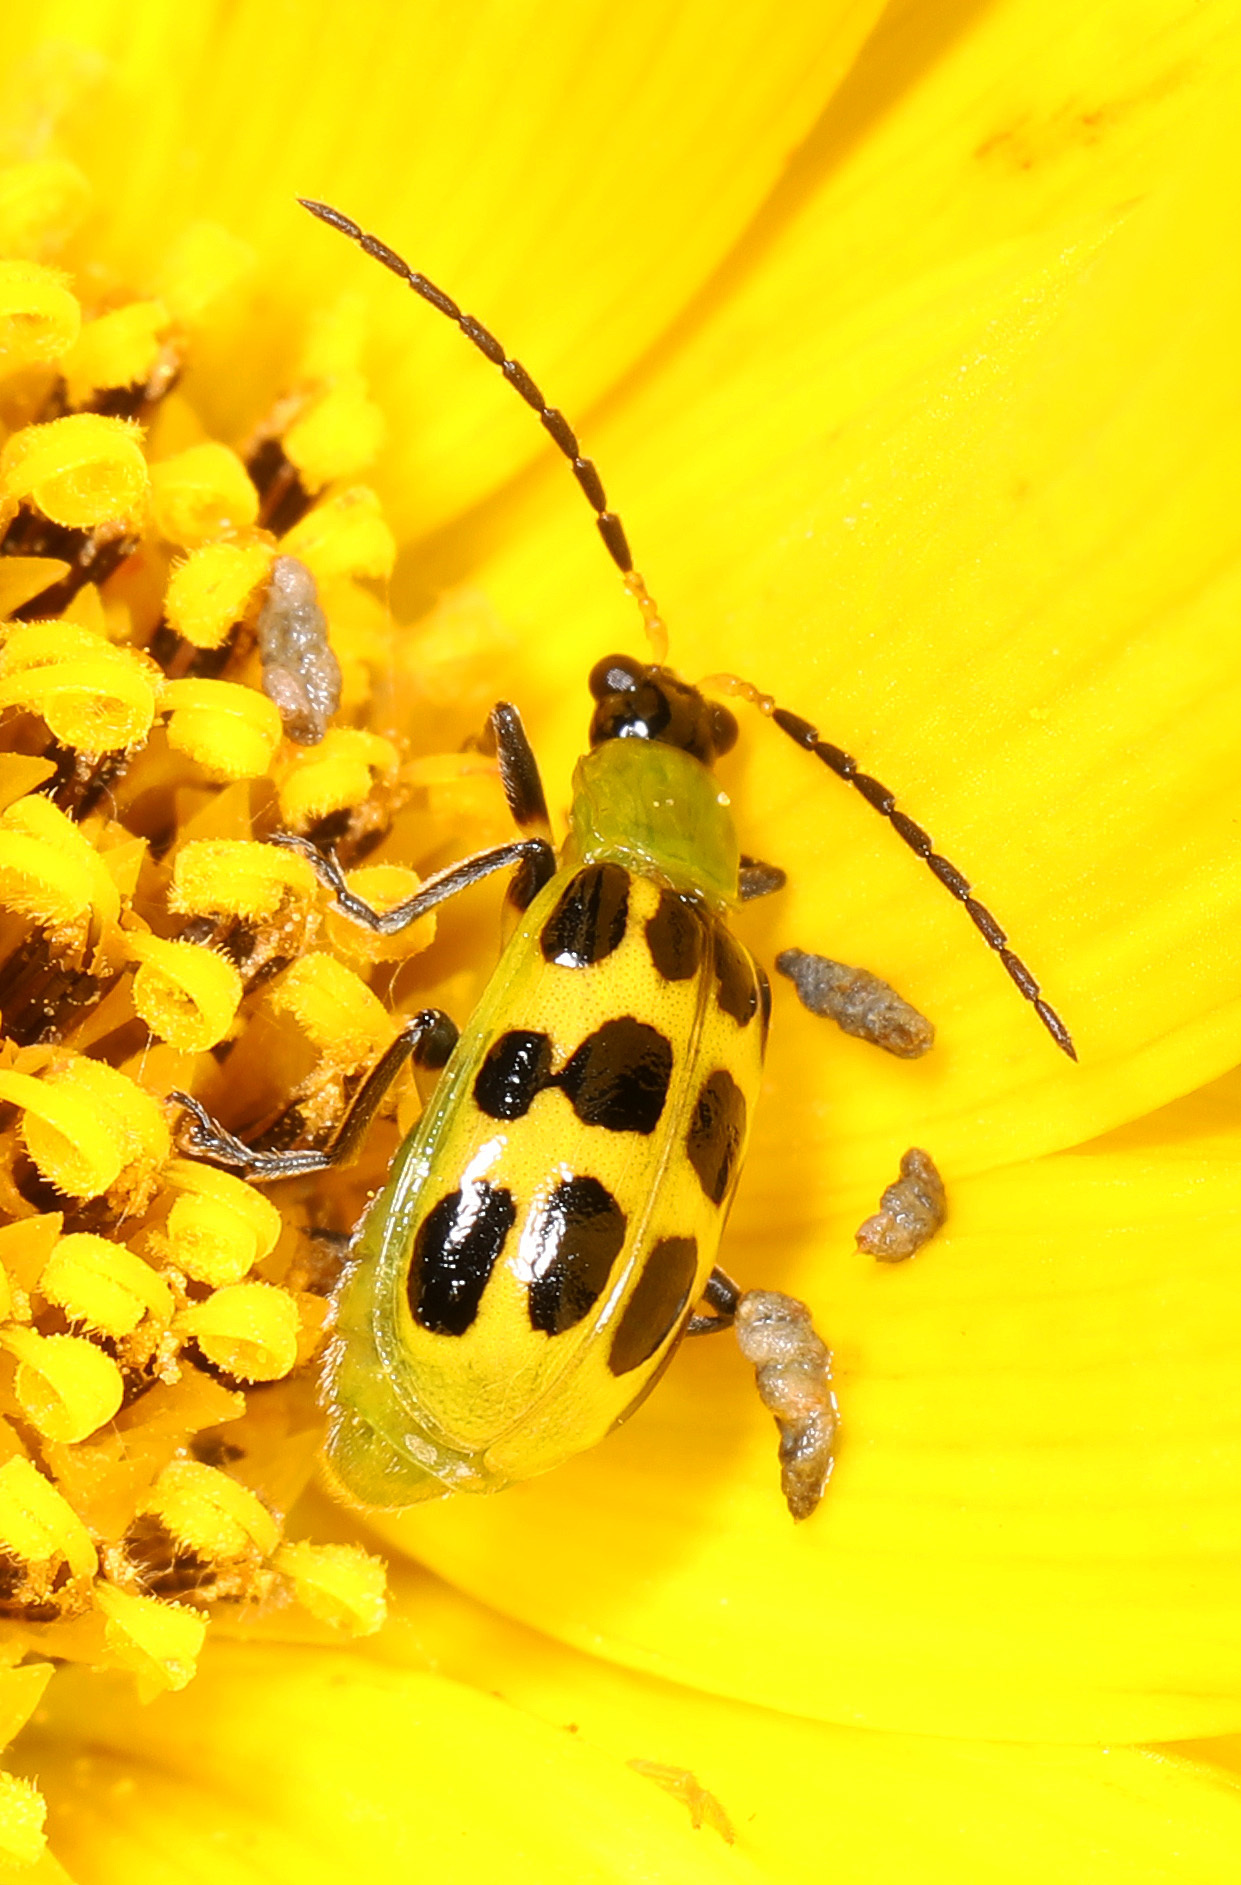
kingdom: Animalia
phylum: Arthropoda
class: Insecta
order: Coleoptera
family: Chrysomelidae
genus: Diabrotica
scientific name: Diabrotica undecimpunctata
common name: Spotted cucumber beetle
